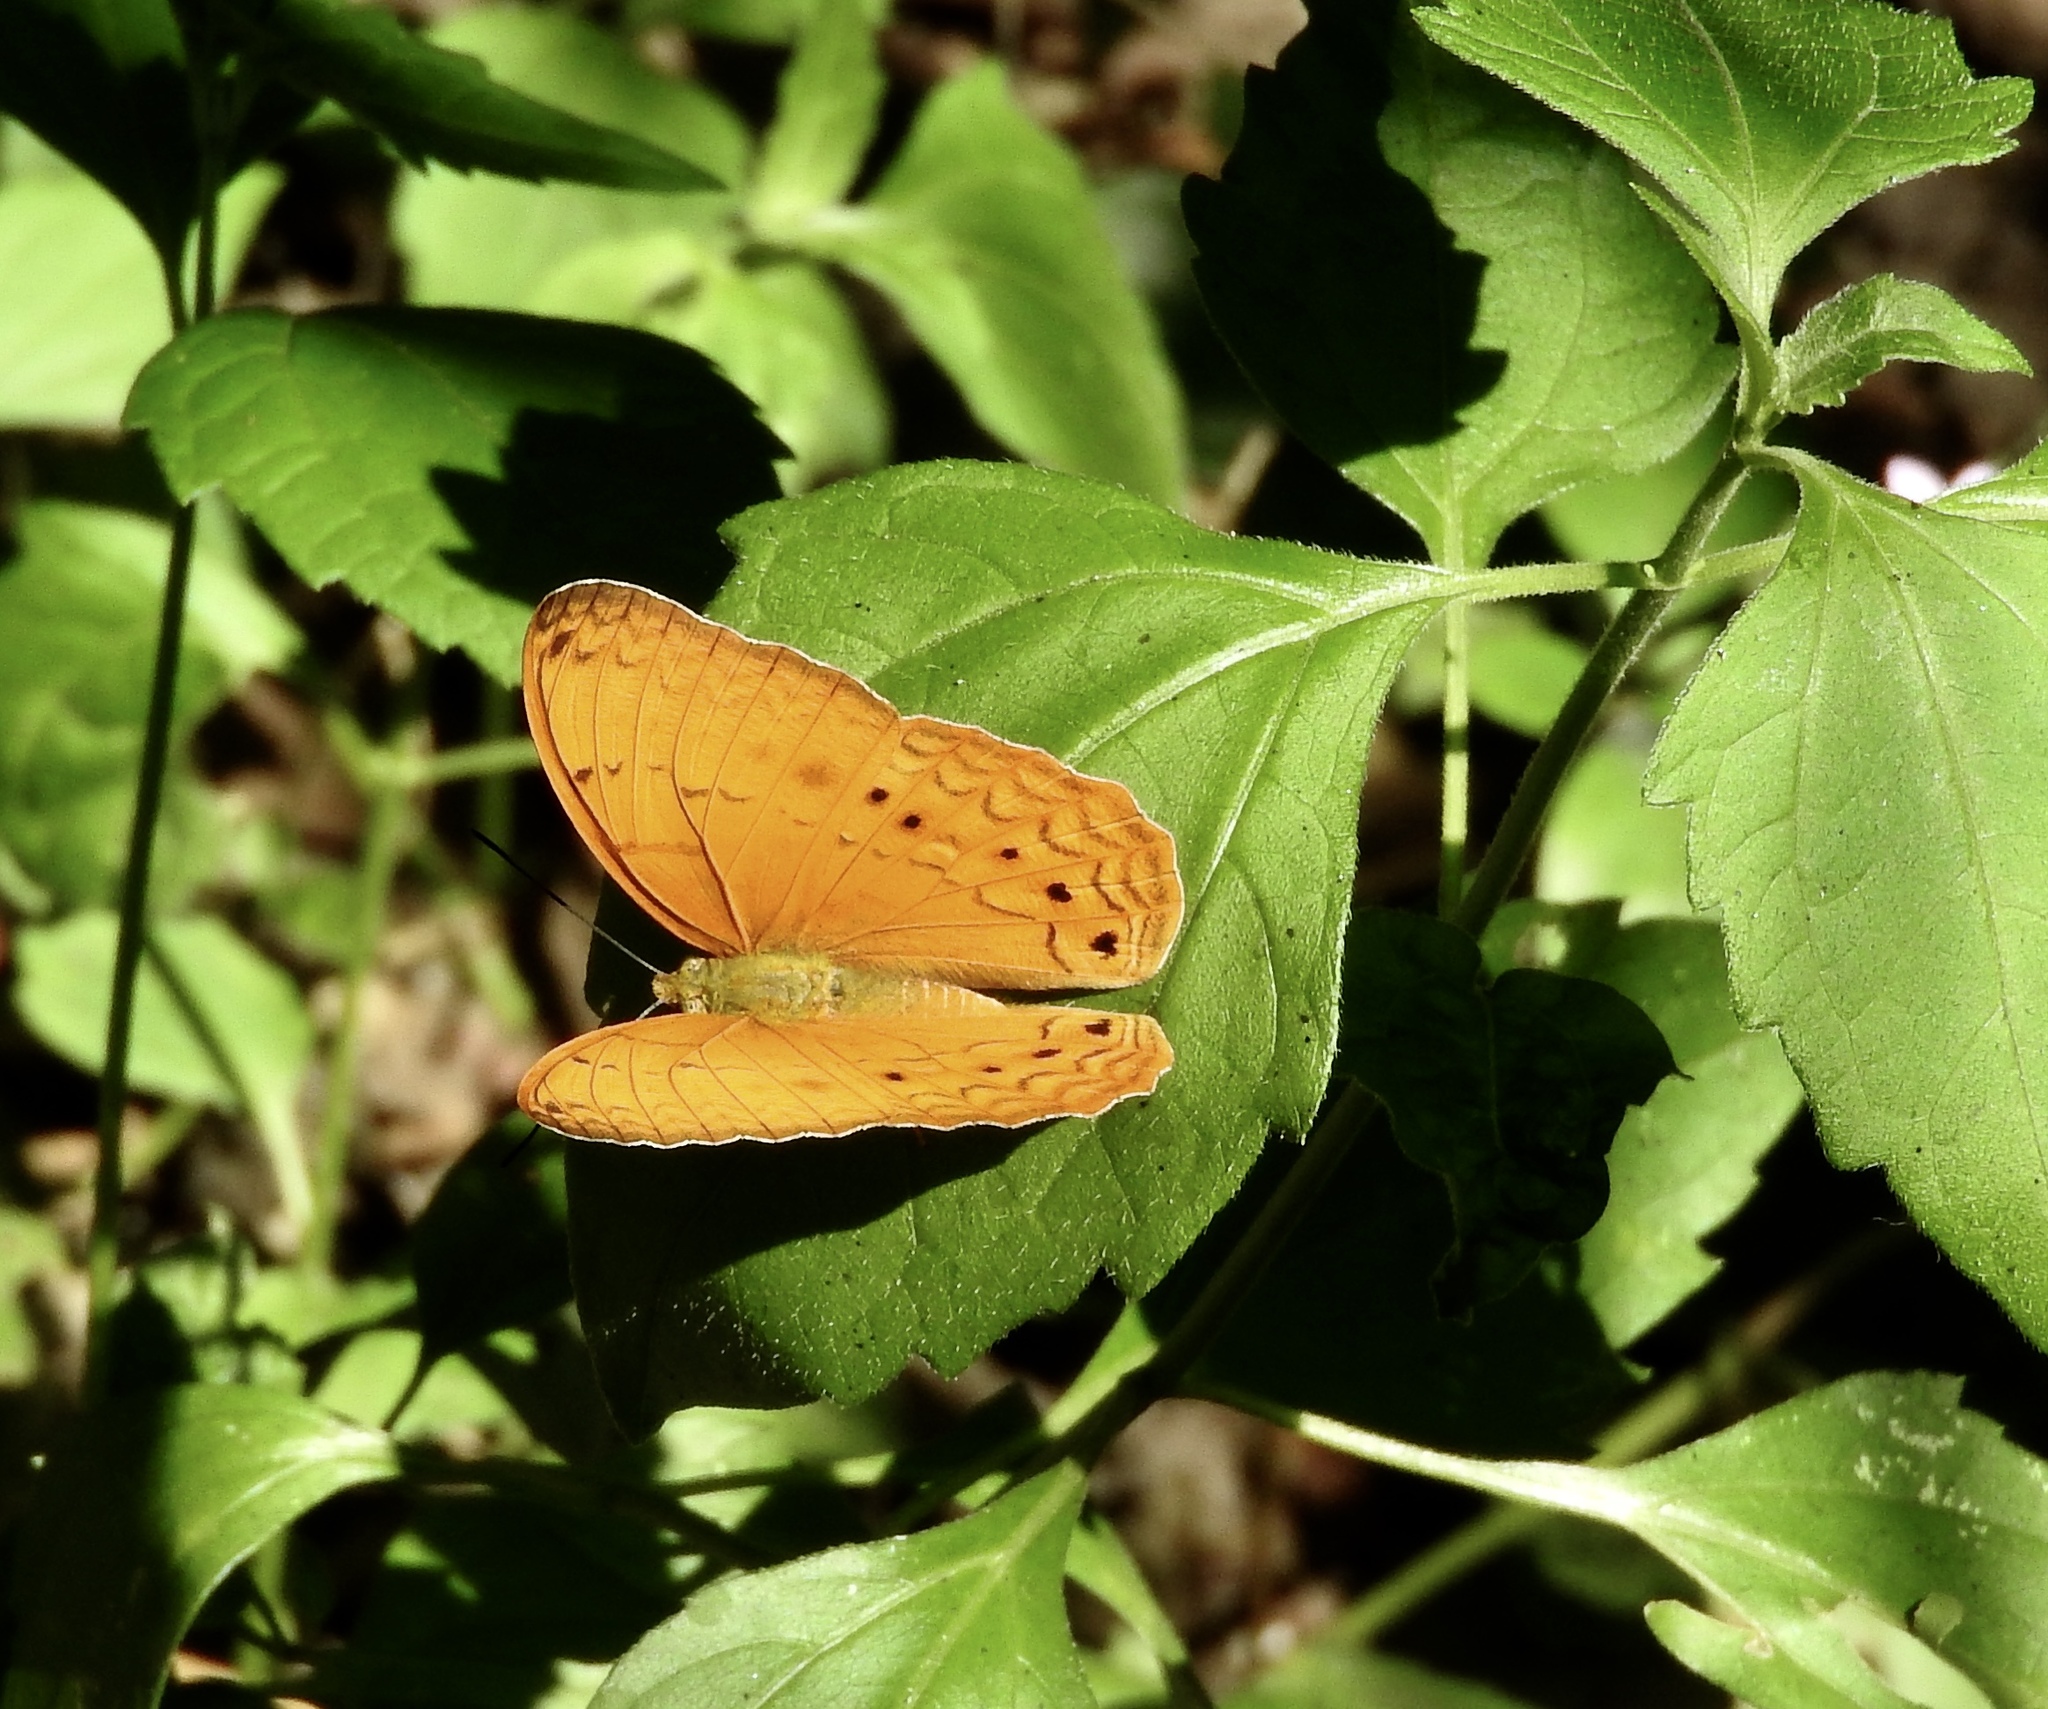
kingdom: Animalia
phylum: Arthropoda
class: Insecta
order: Lepidoptera
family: Nymphalidae
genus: Cirrochroa
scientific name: Cirrochroa tyche
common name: Common yeoman
